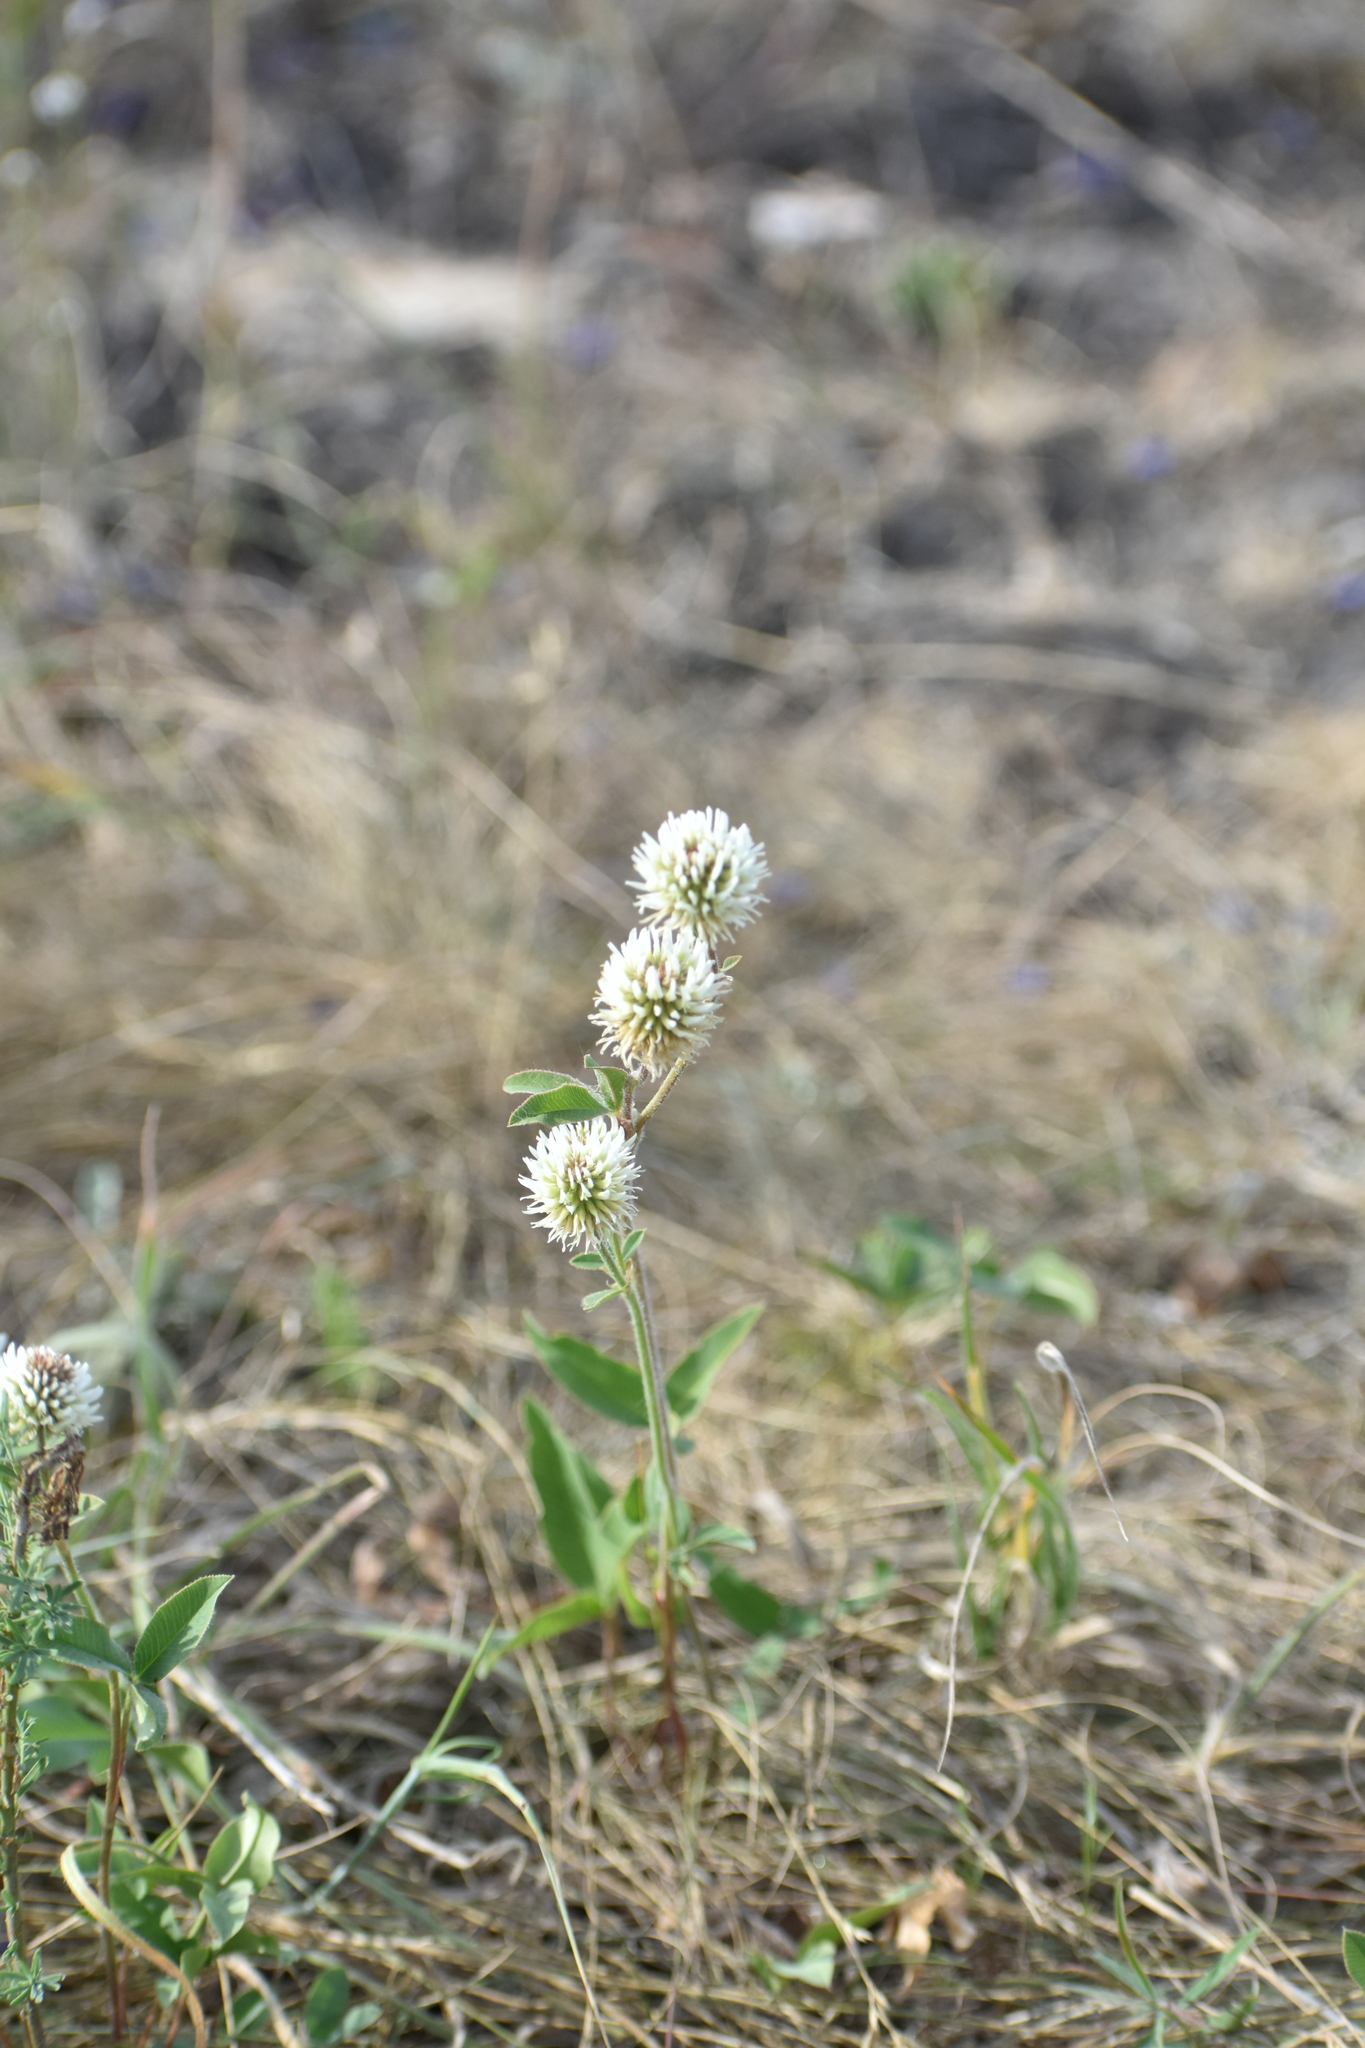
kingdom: Plantae
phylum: Tracheophyta
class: Magnoliopsida
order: Fabales
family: Fabaceae
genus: Trifolium
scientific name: Trifolium montanum
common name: Mountain clover
